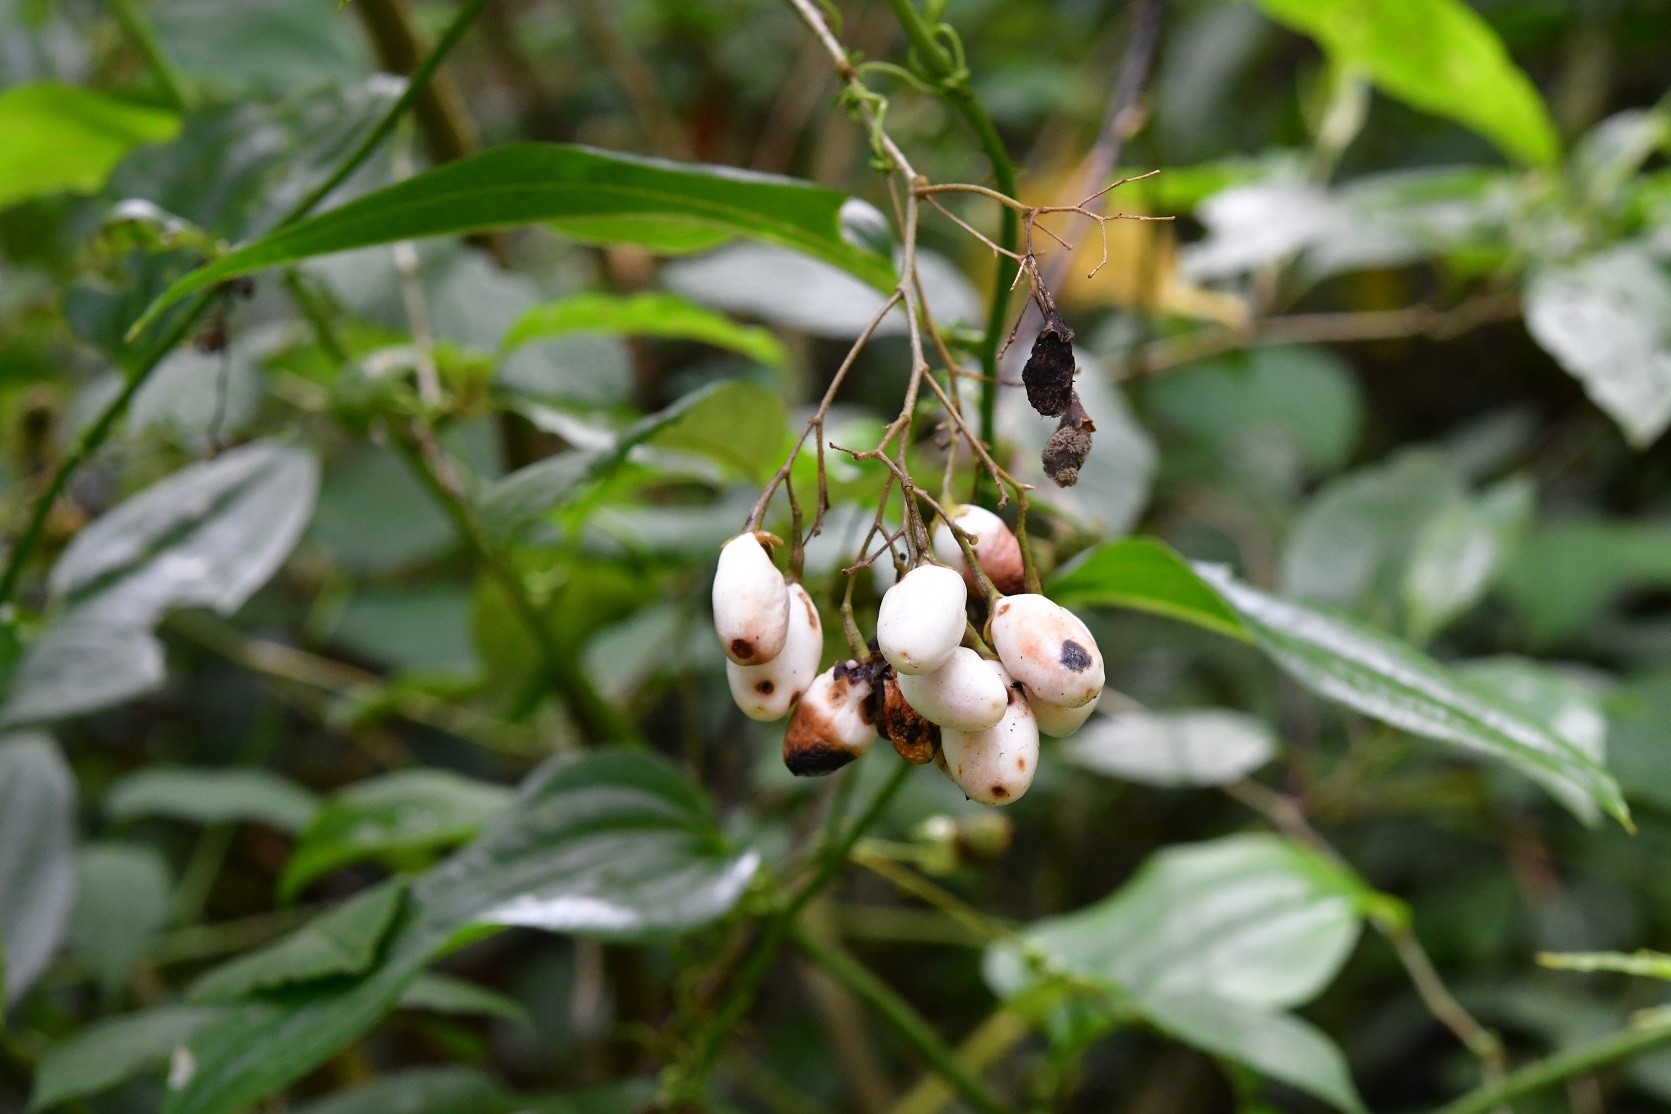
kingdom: Plantae
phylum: Tracheophyta
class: Magnoliopsida
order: Solanales
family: Solanaceae
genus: Cestrum
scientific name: Cestrum guatemalense
